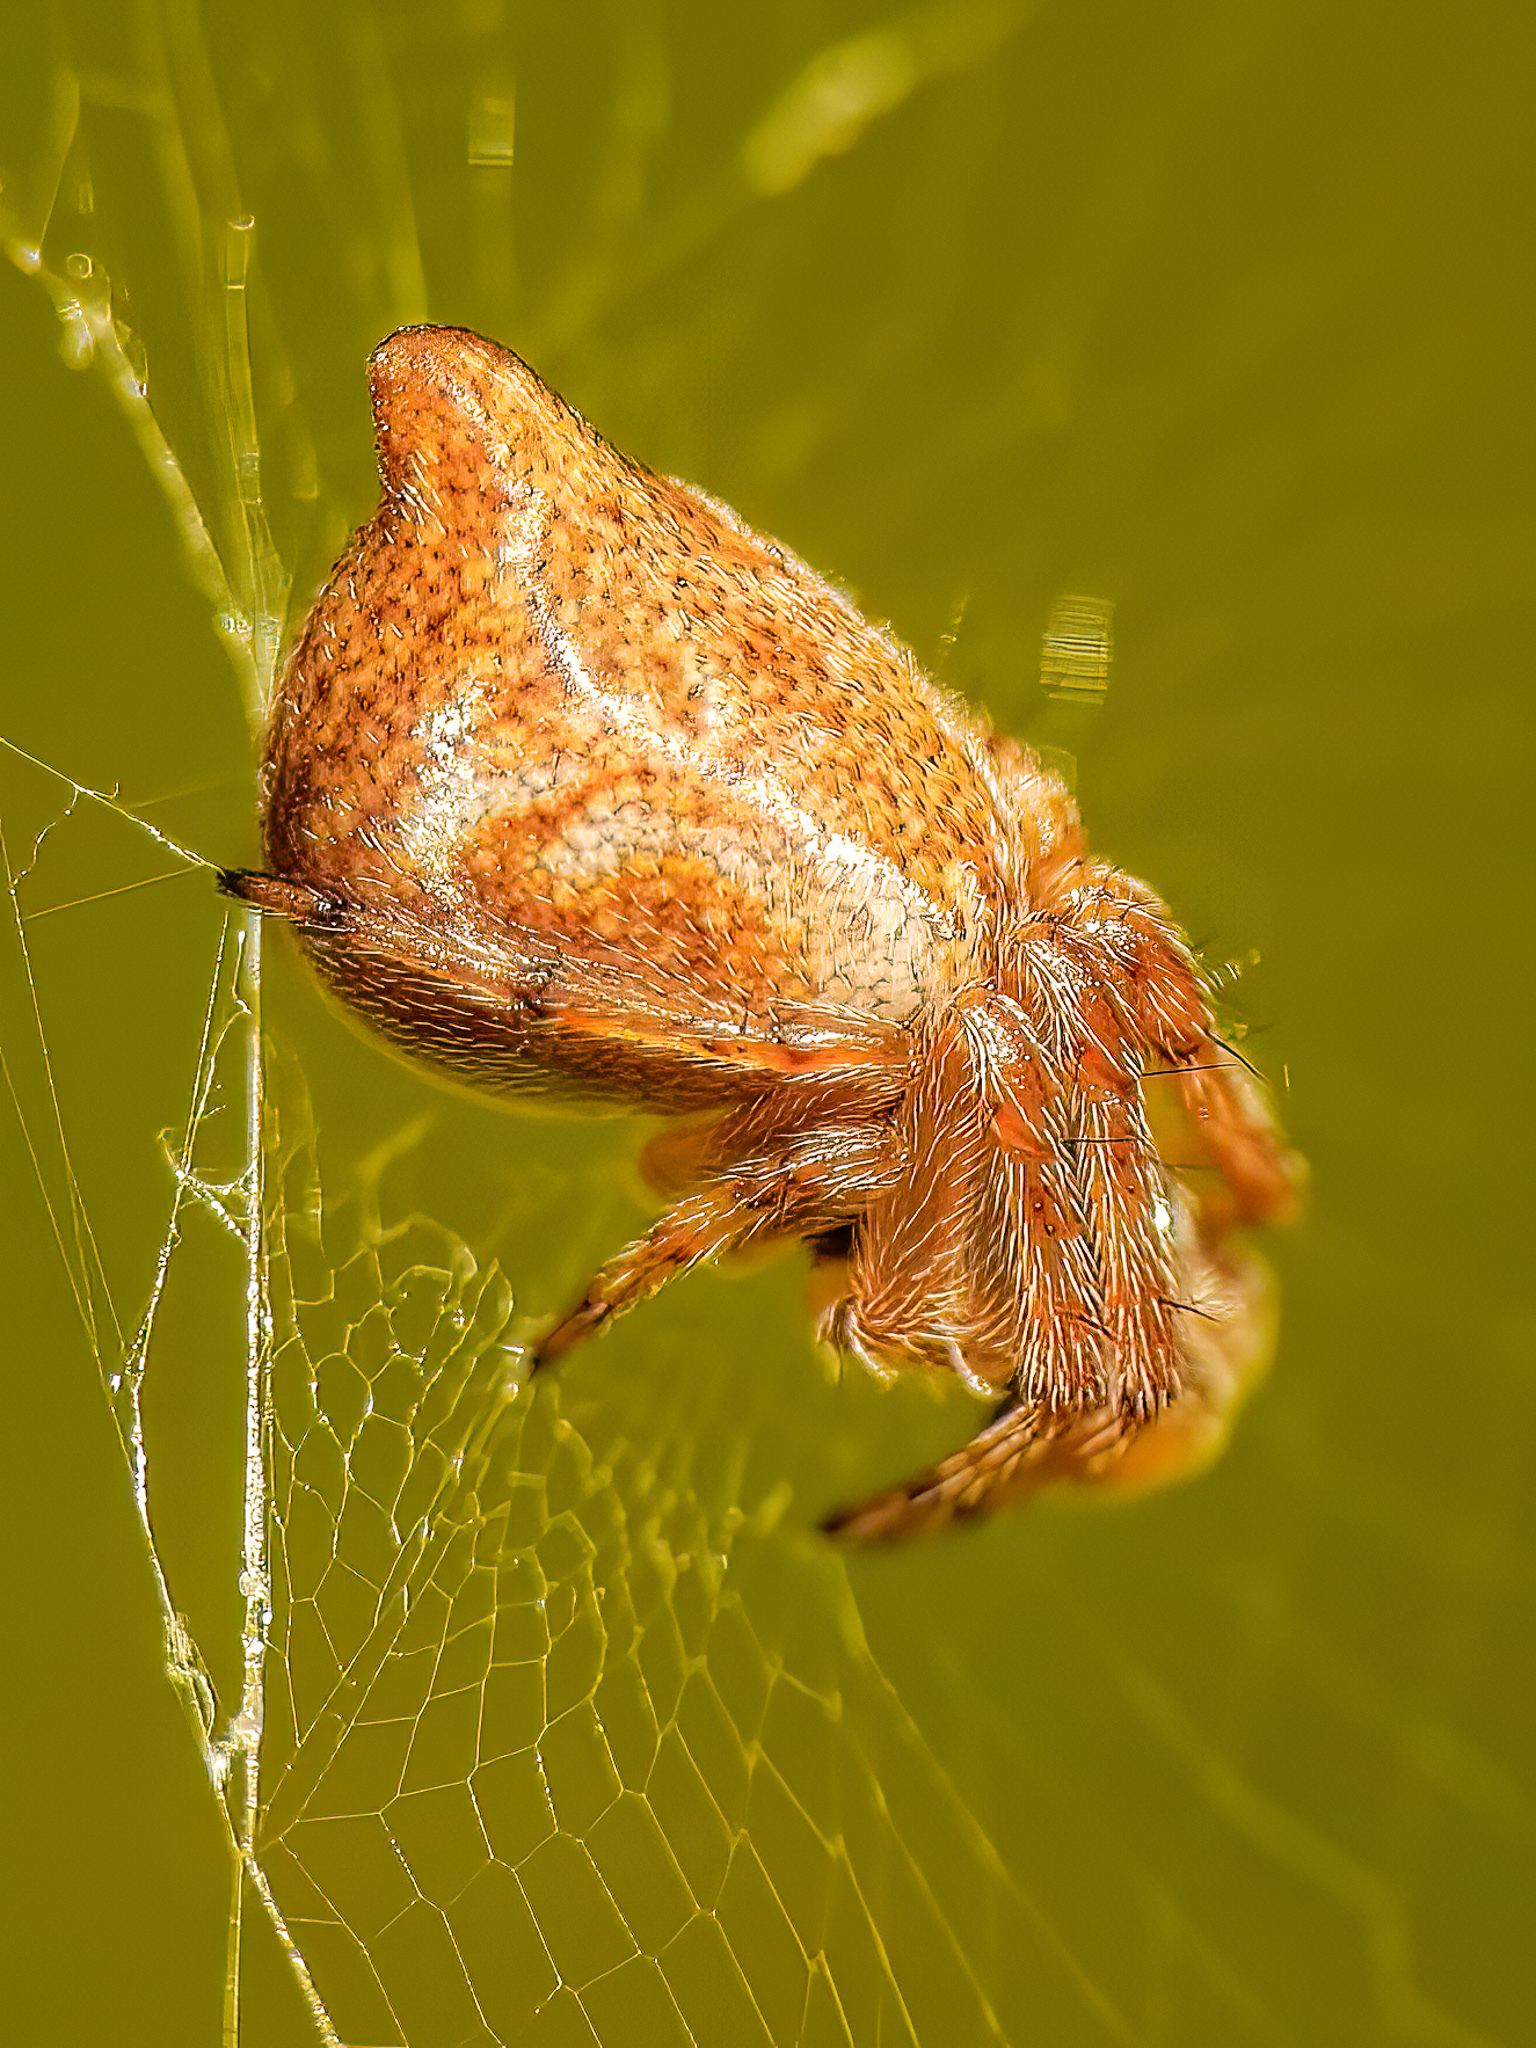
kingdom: Animalia
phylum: Arthropoda
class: Arachnida
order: Araneae
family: Araneidae
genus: Cyclosa
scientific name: Cyclosa conica
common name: Conical trashline orbweaver
